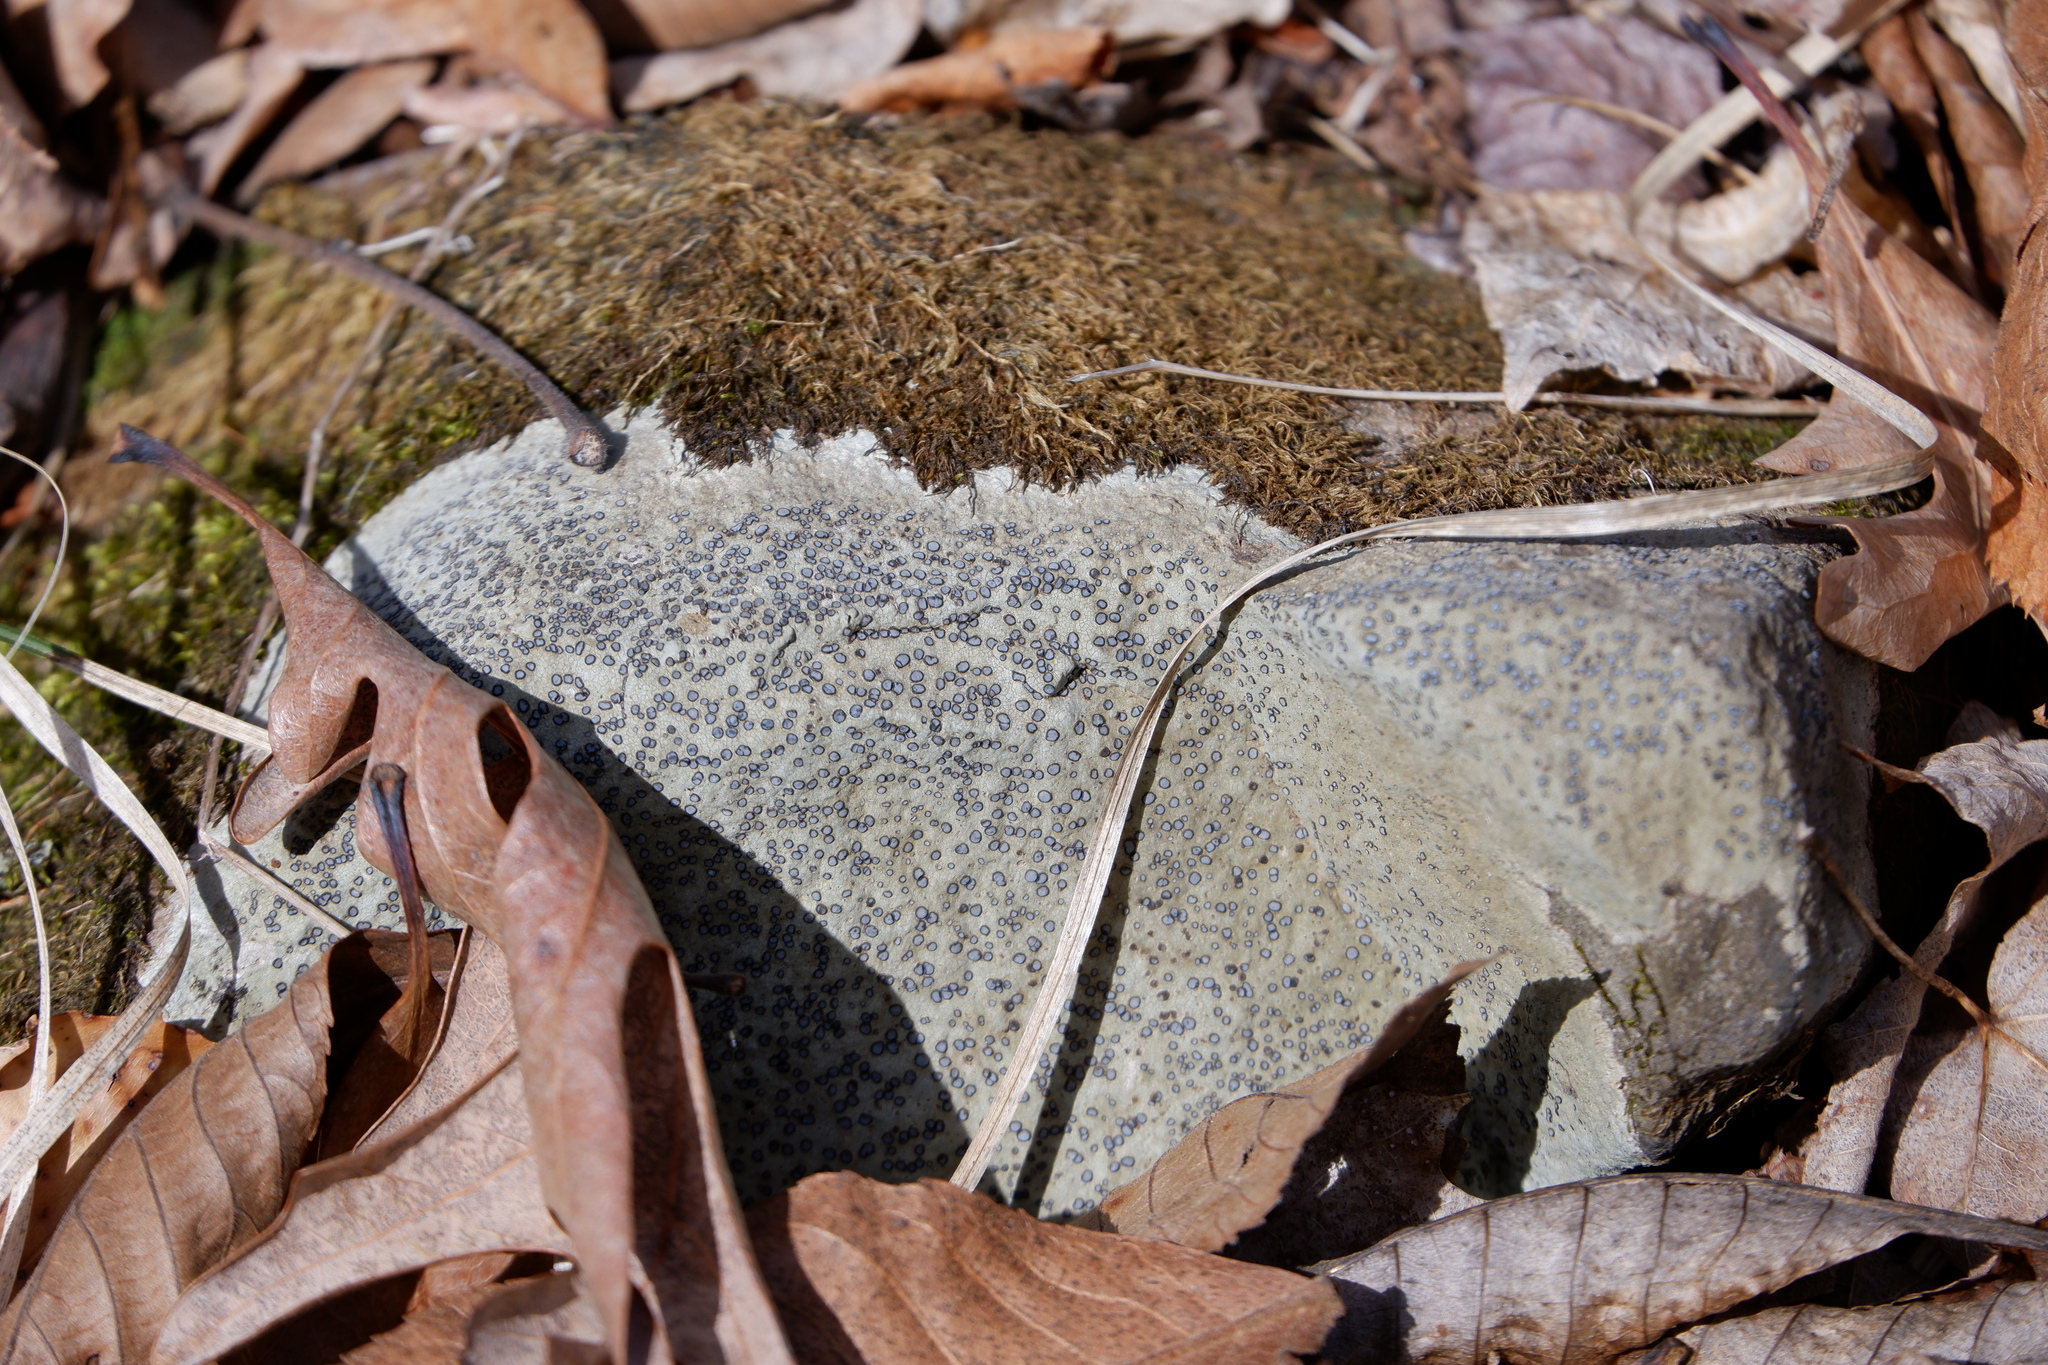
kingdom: Fungi
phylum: Ascomycota
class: Lecanoromycetes
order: Lecideales
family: Lecideaceae
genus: Porpidia
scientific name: Porpidia albocaerulescens
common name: Smokey-eyed boulder lichen
